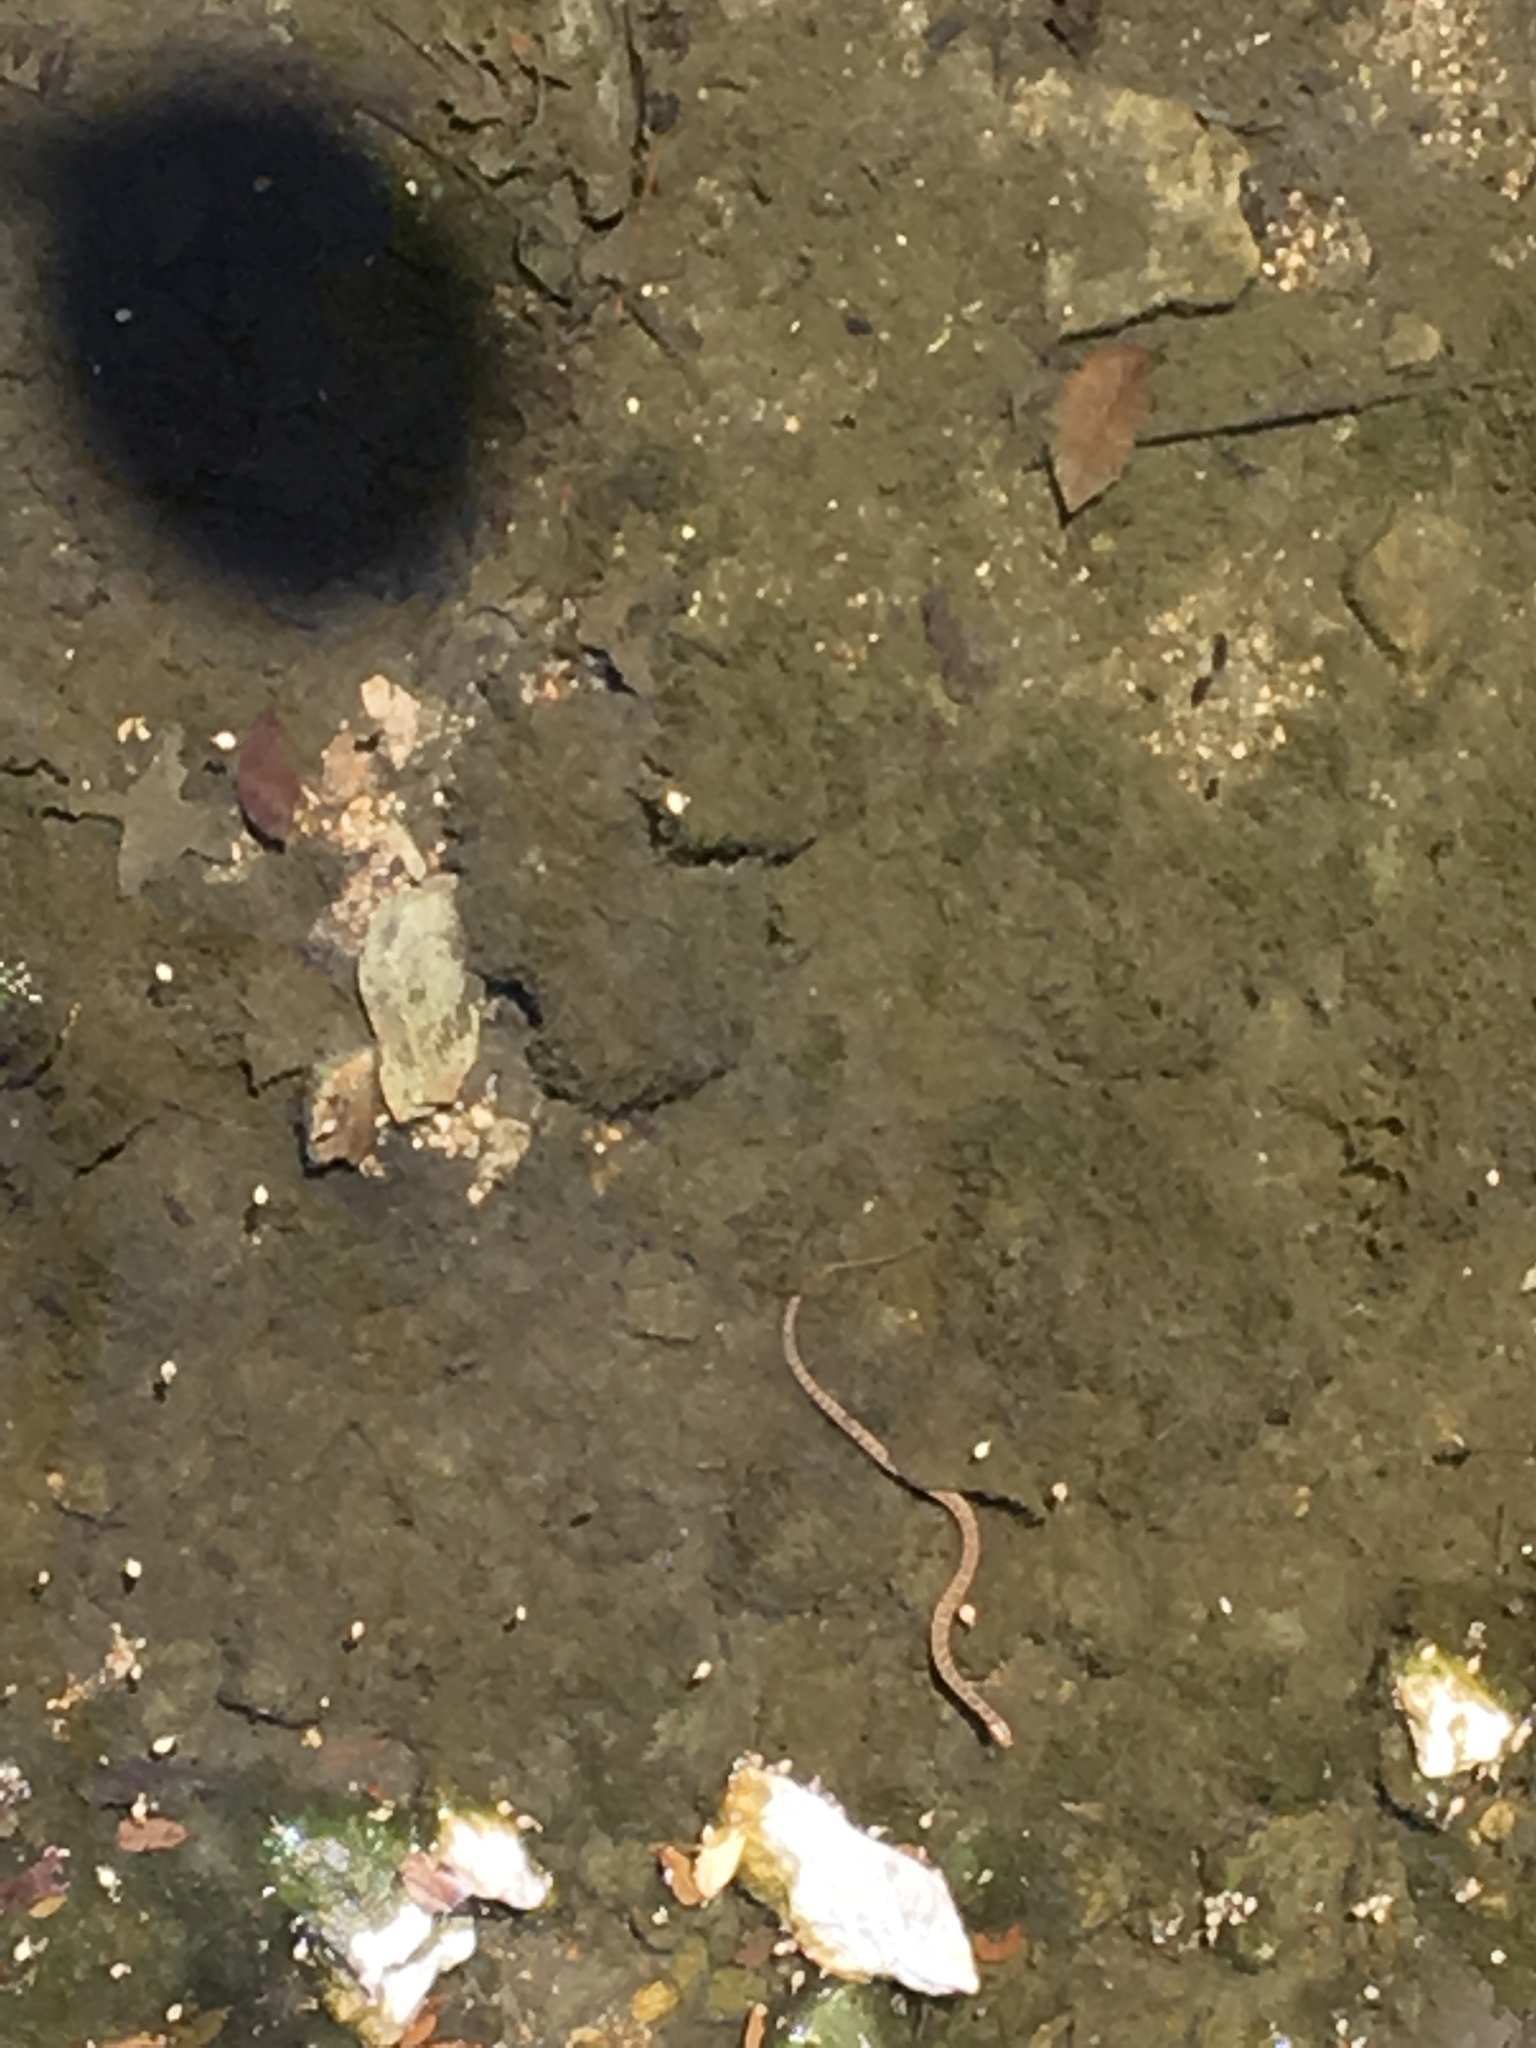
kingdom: Animalia
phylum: Chordata
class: Squamata
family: Colubridae
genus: Nerodia
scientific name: Nerodia erythrogaster
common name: Plainbelly water snake
